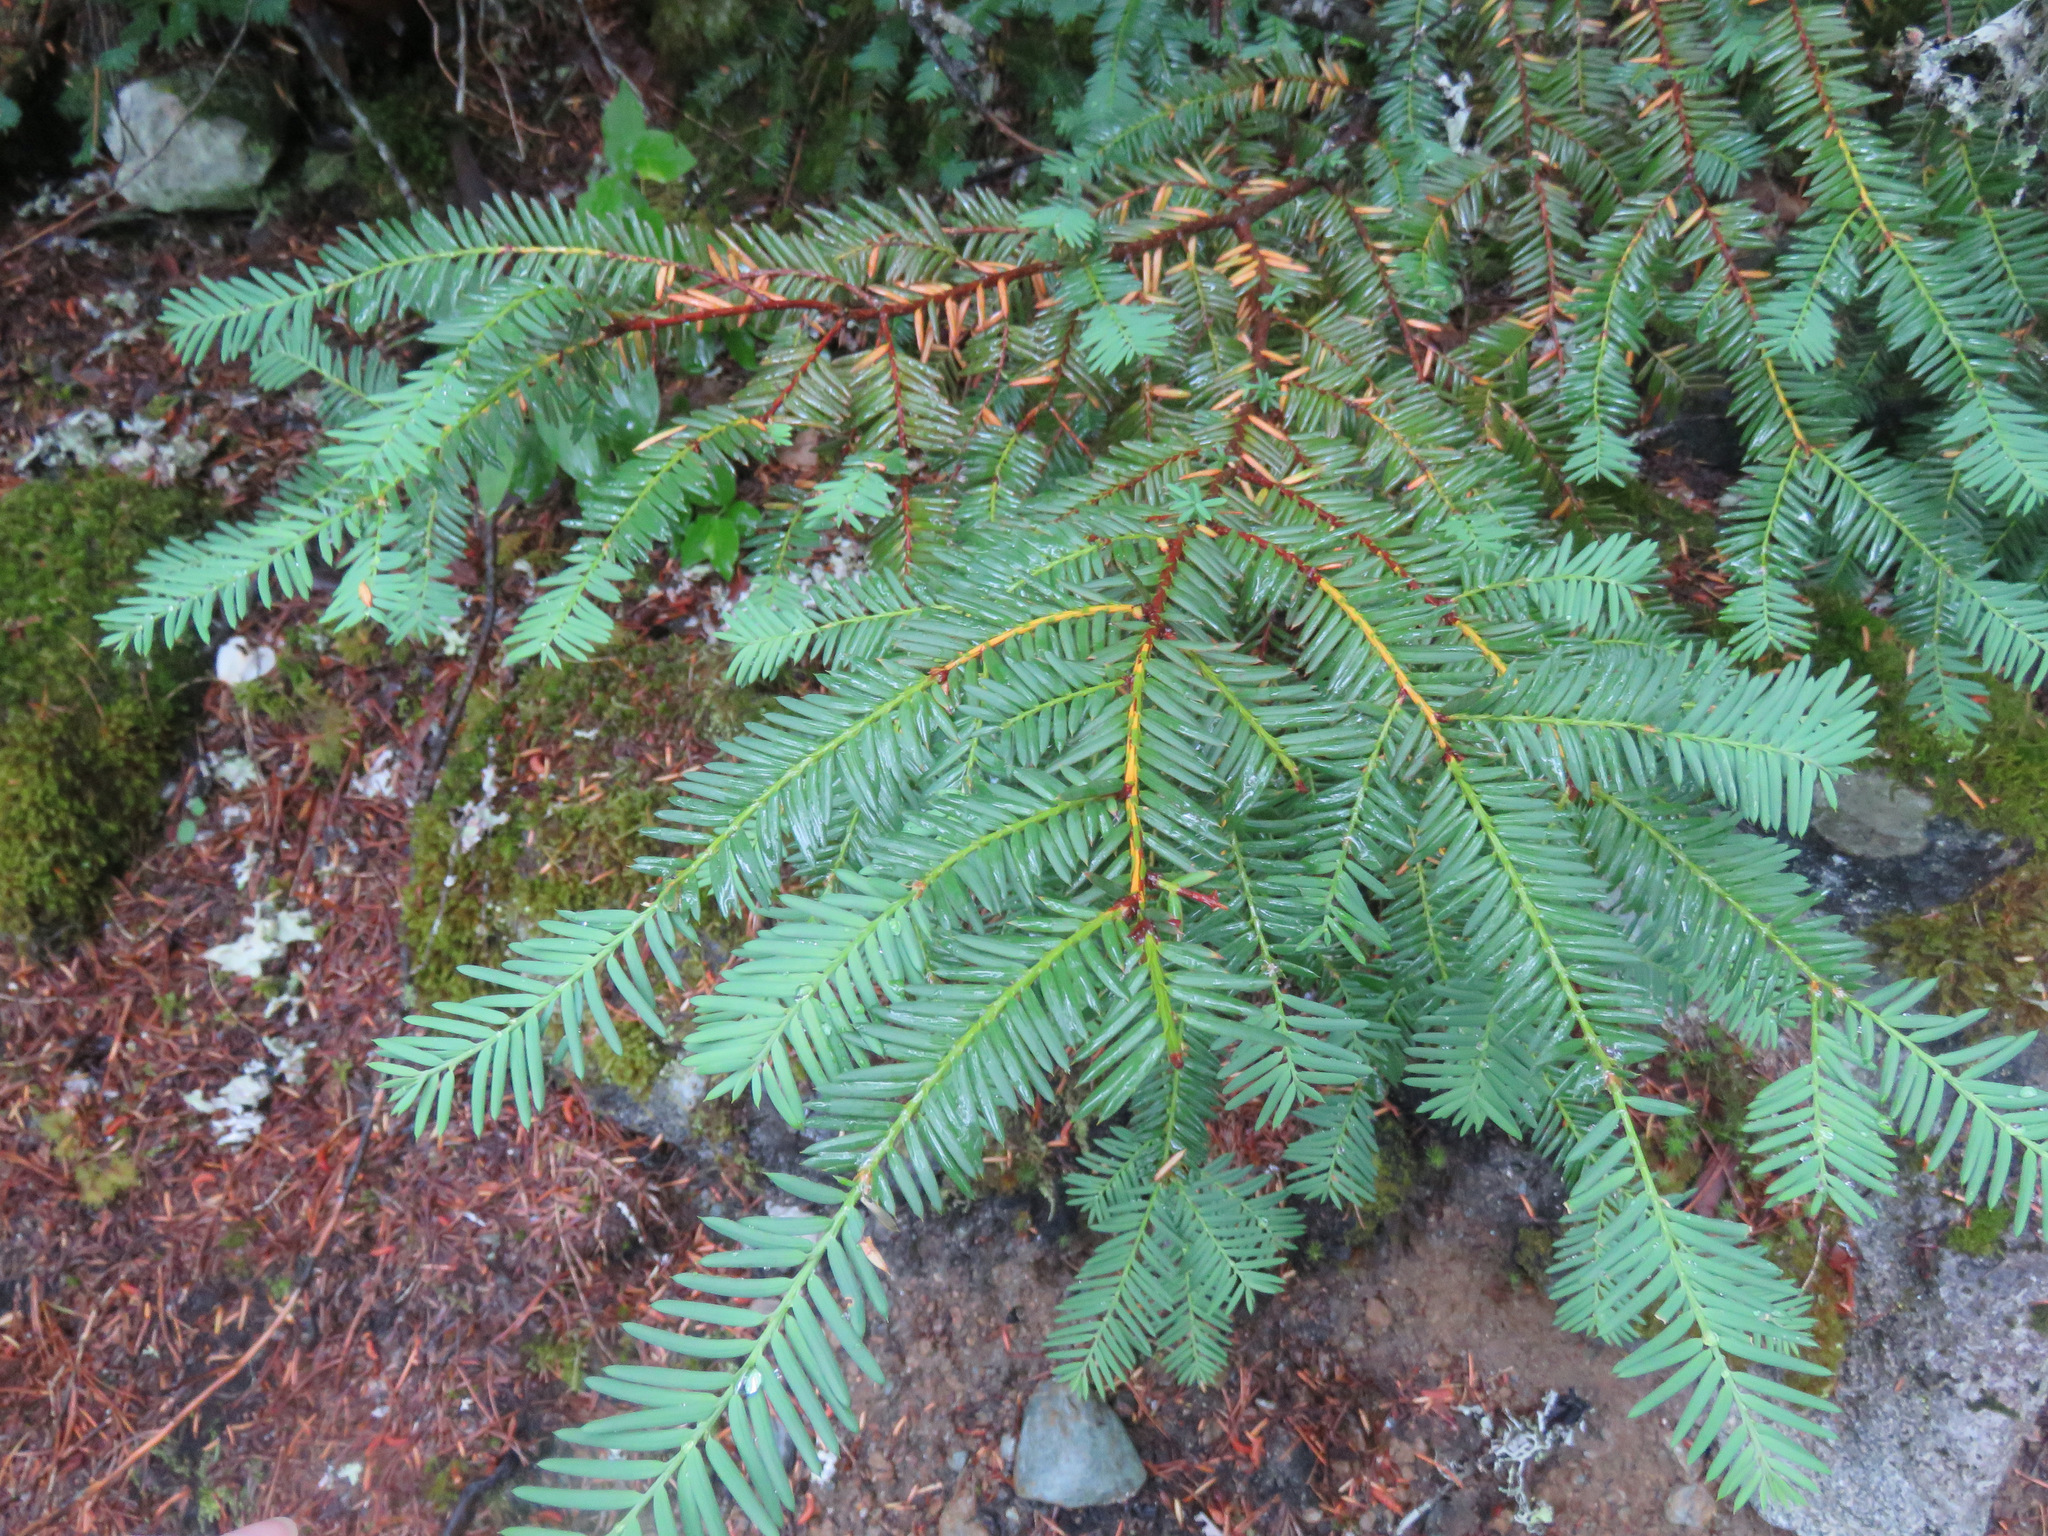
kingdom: Plantae
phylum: Tracheophyta
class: Pinopsida
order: Pinales
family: Taxaceae
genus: Taxus
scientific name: Taxus brevifolia
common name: Pacific yew
